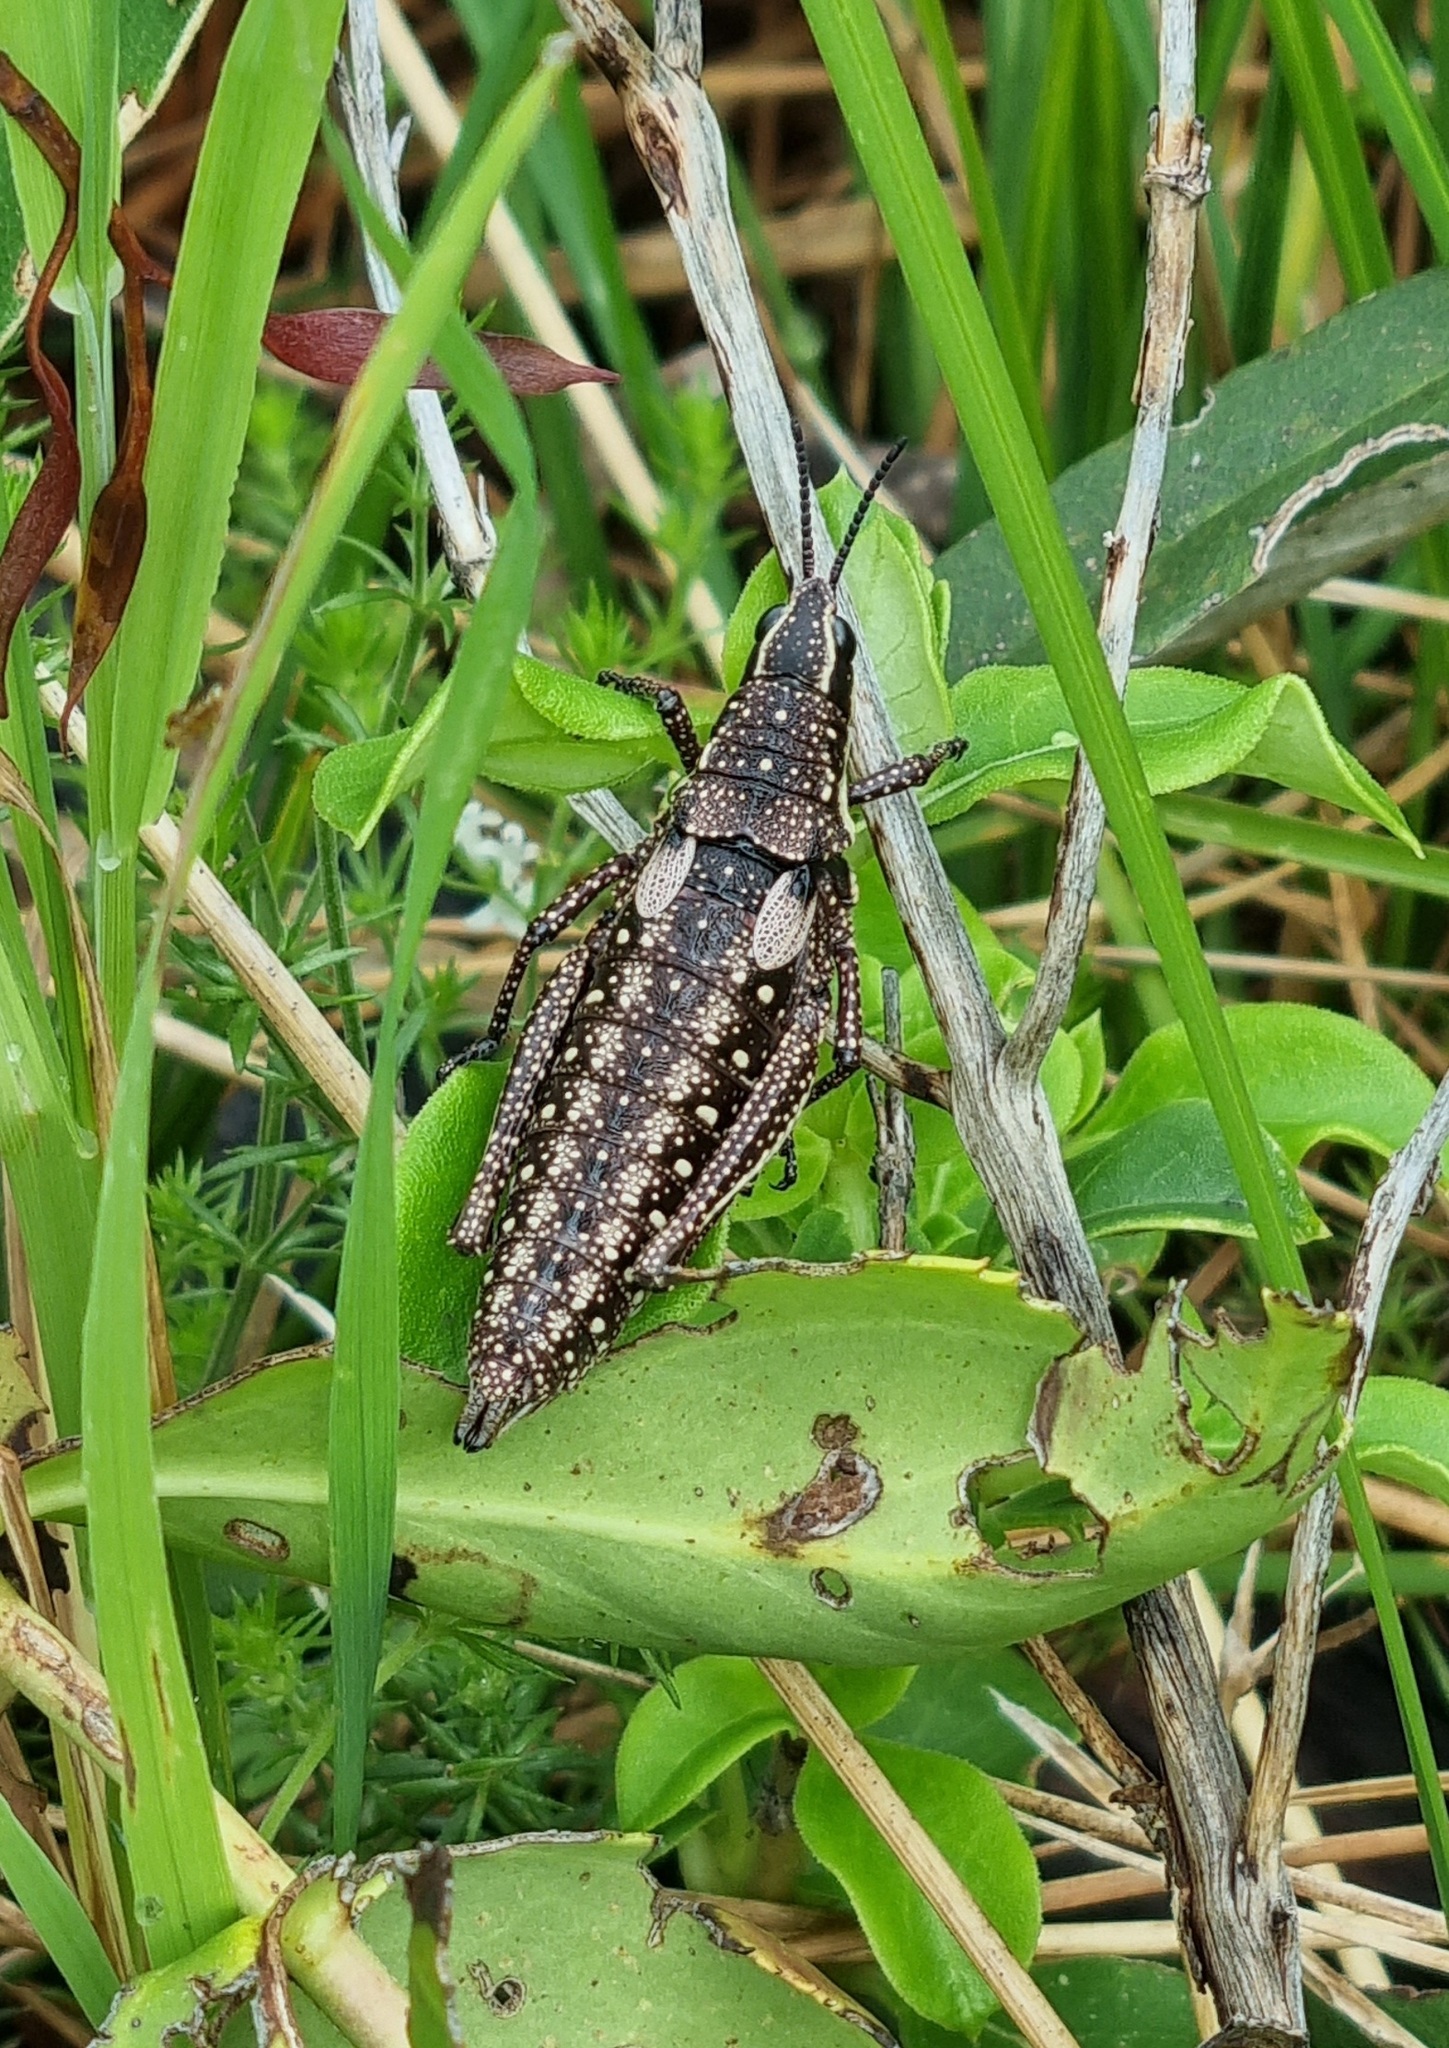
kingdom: Animalia
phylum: Arthropoda
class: Insecta
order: Orthoptera
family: Pyrgomorphidae
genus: Monistria
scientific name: Monistria concinna
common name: Southern pyrgomorph
